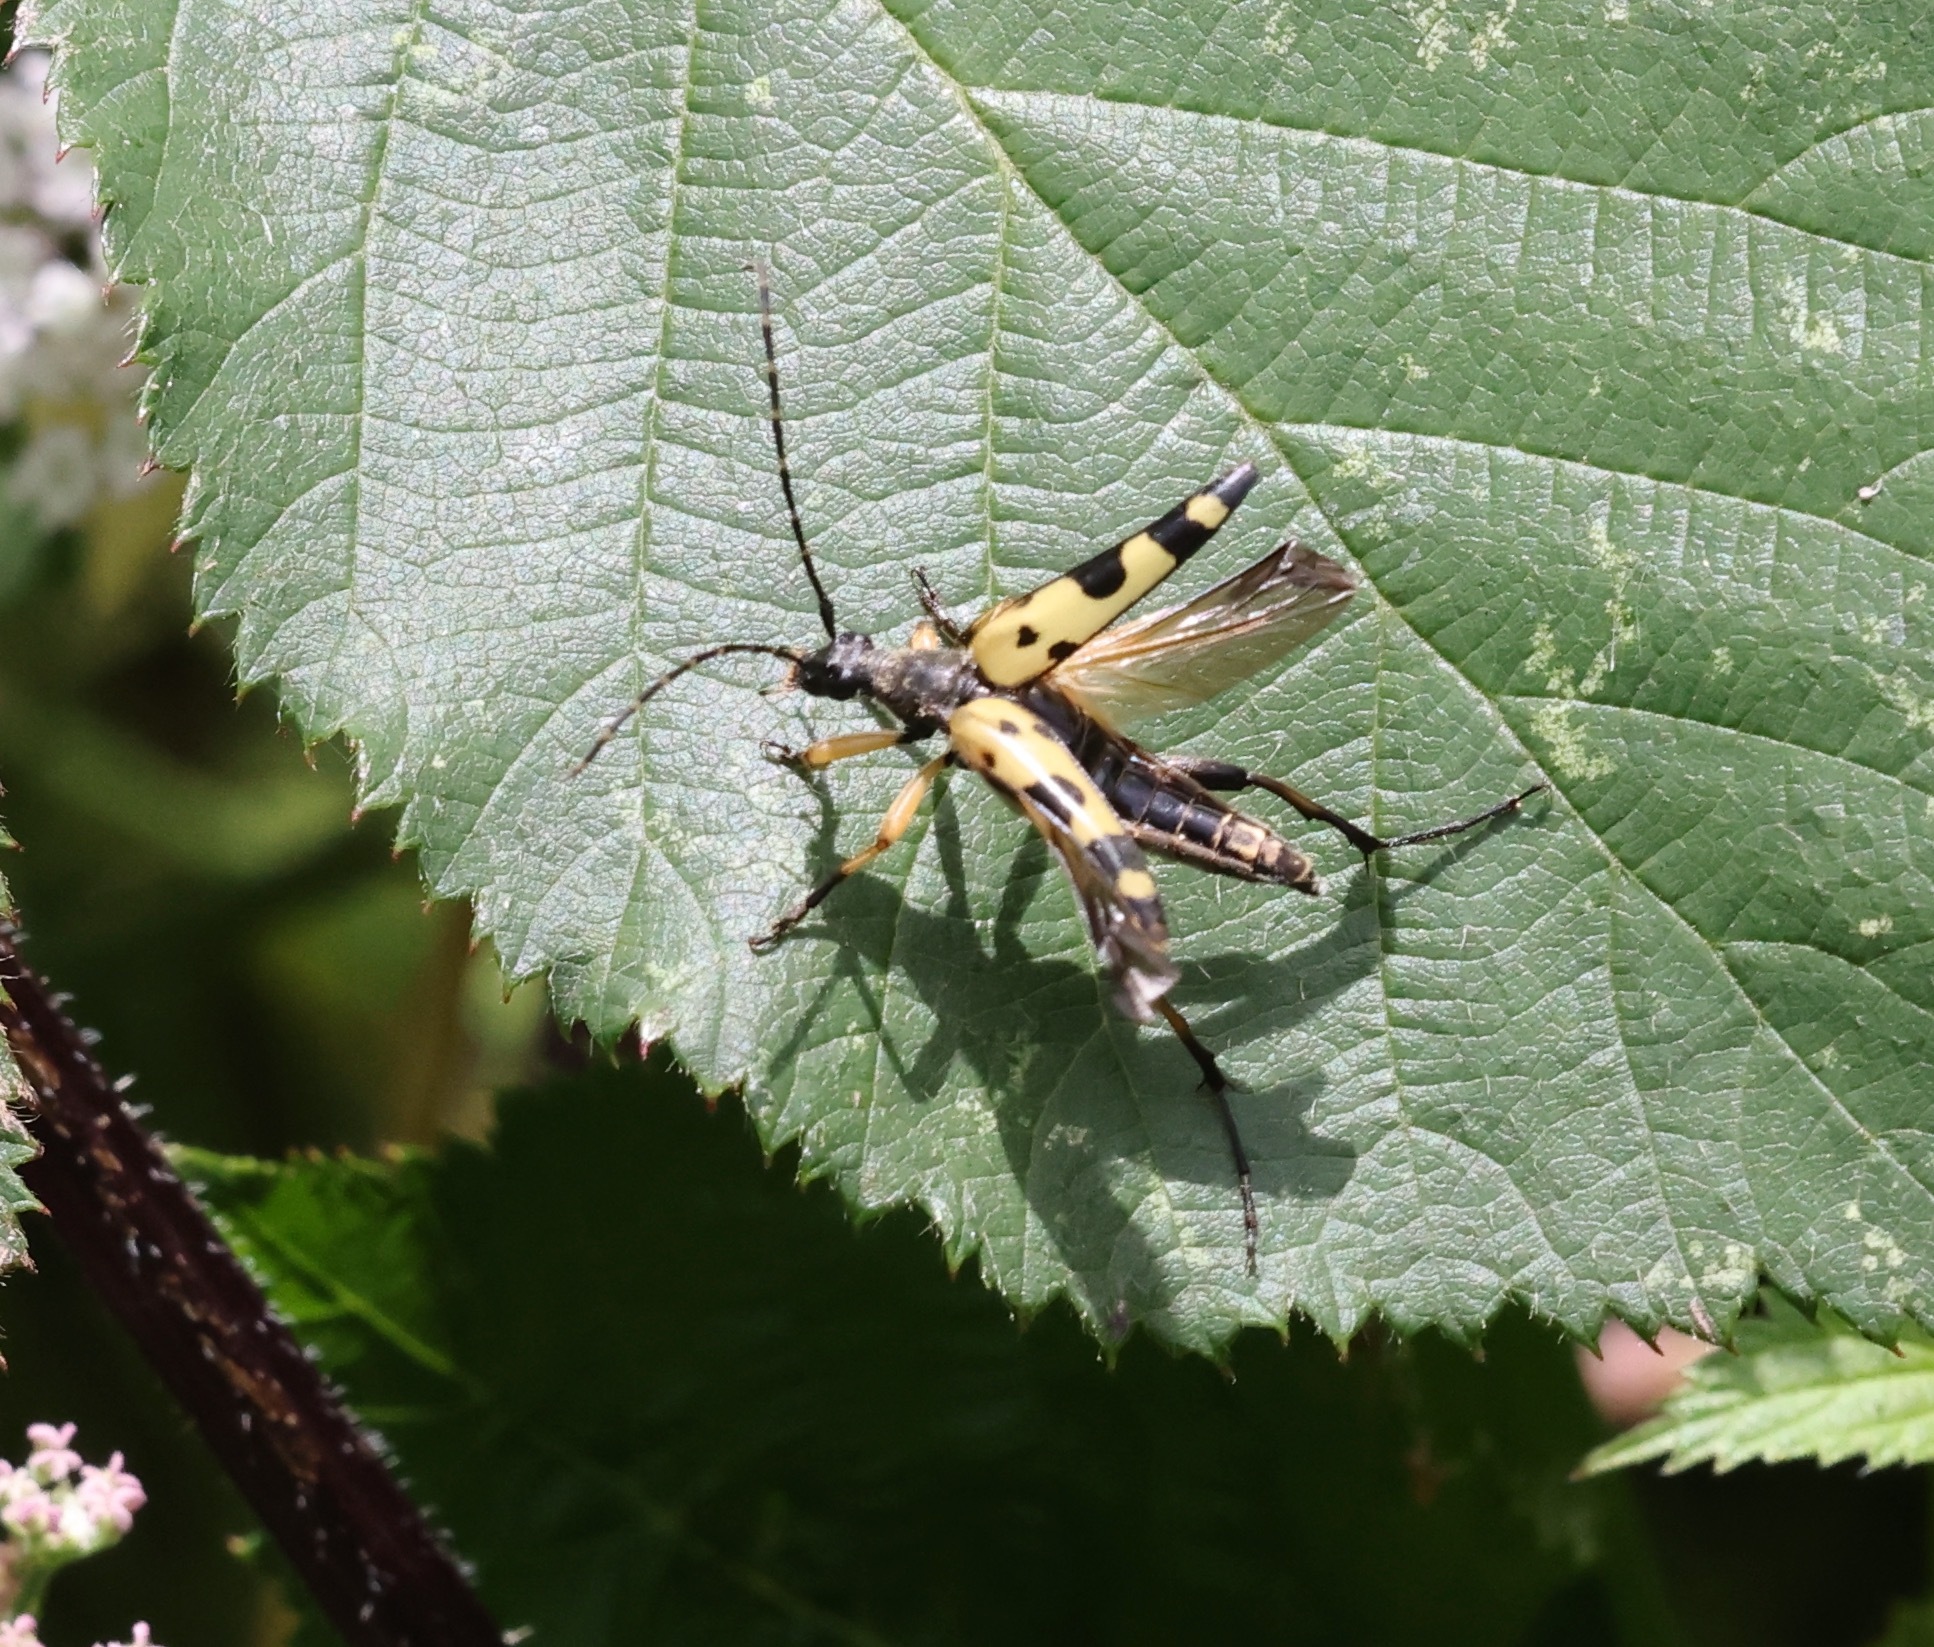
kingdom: Animalia
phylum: Arthropoda
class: Insecta
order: Coleoptera
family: Cerambycidae
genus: Rutpela
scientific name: Rutpela maculata
